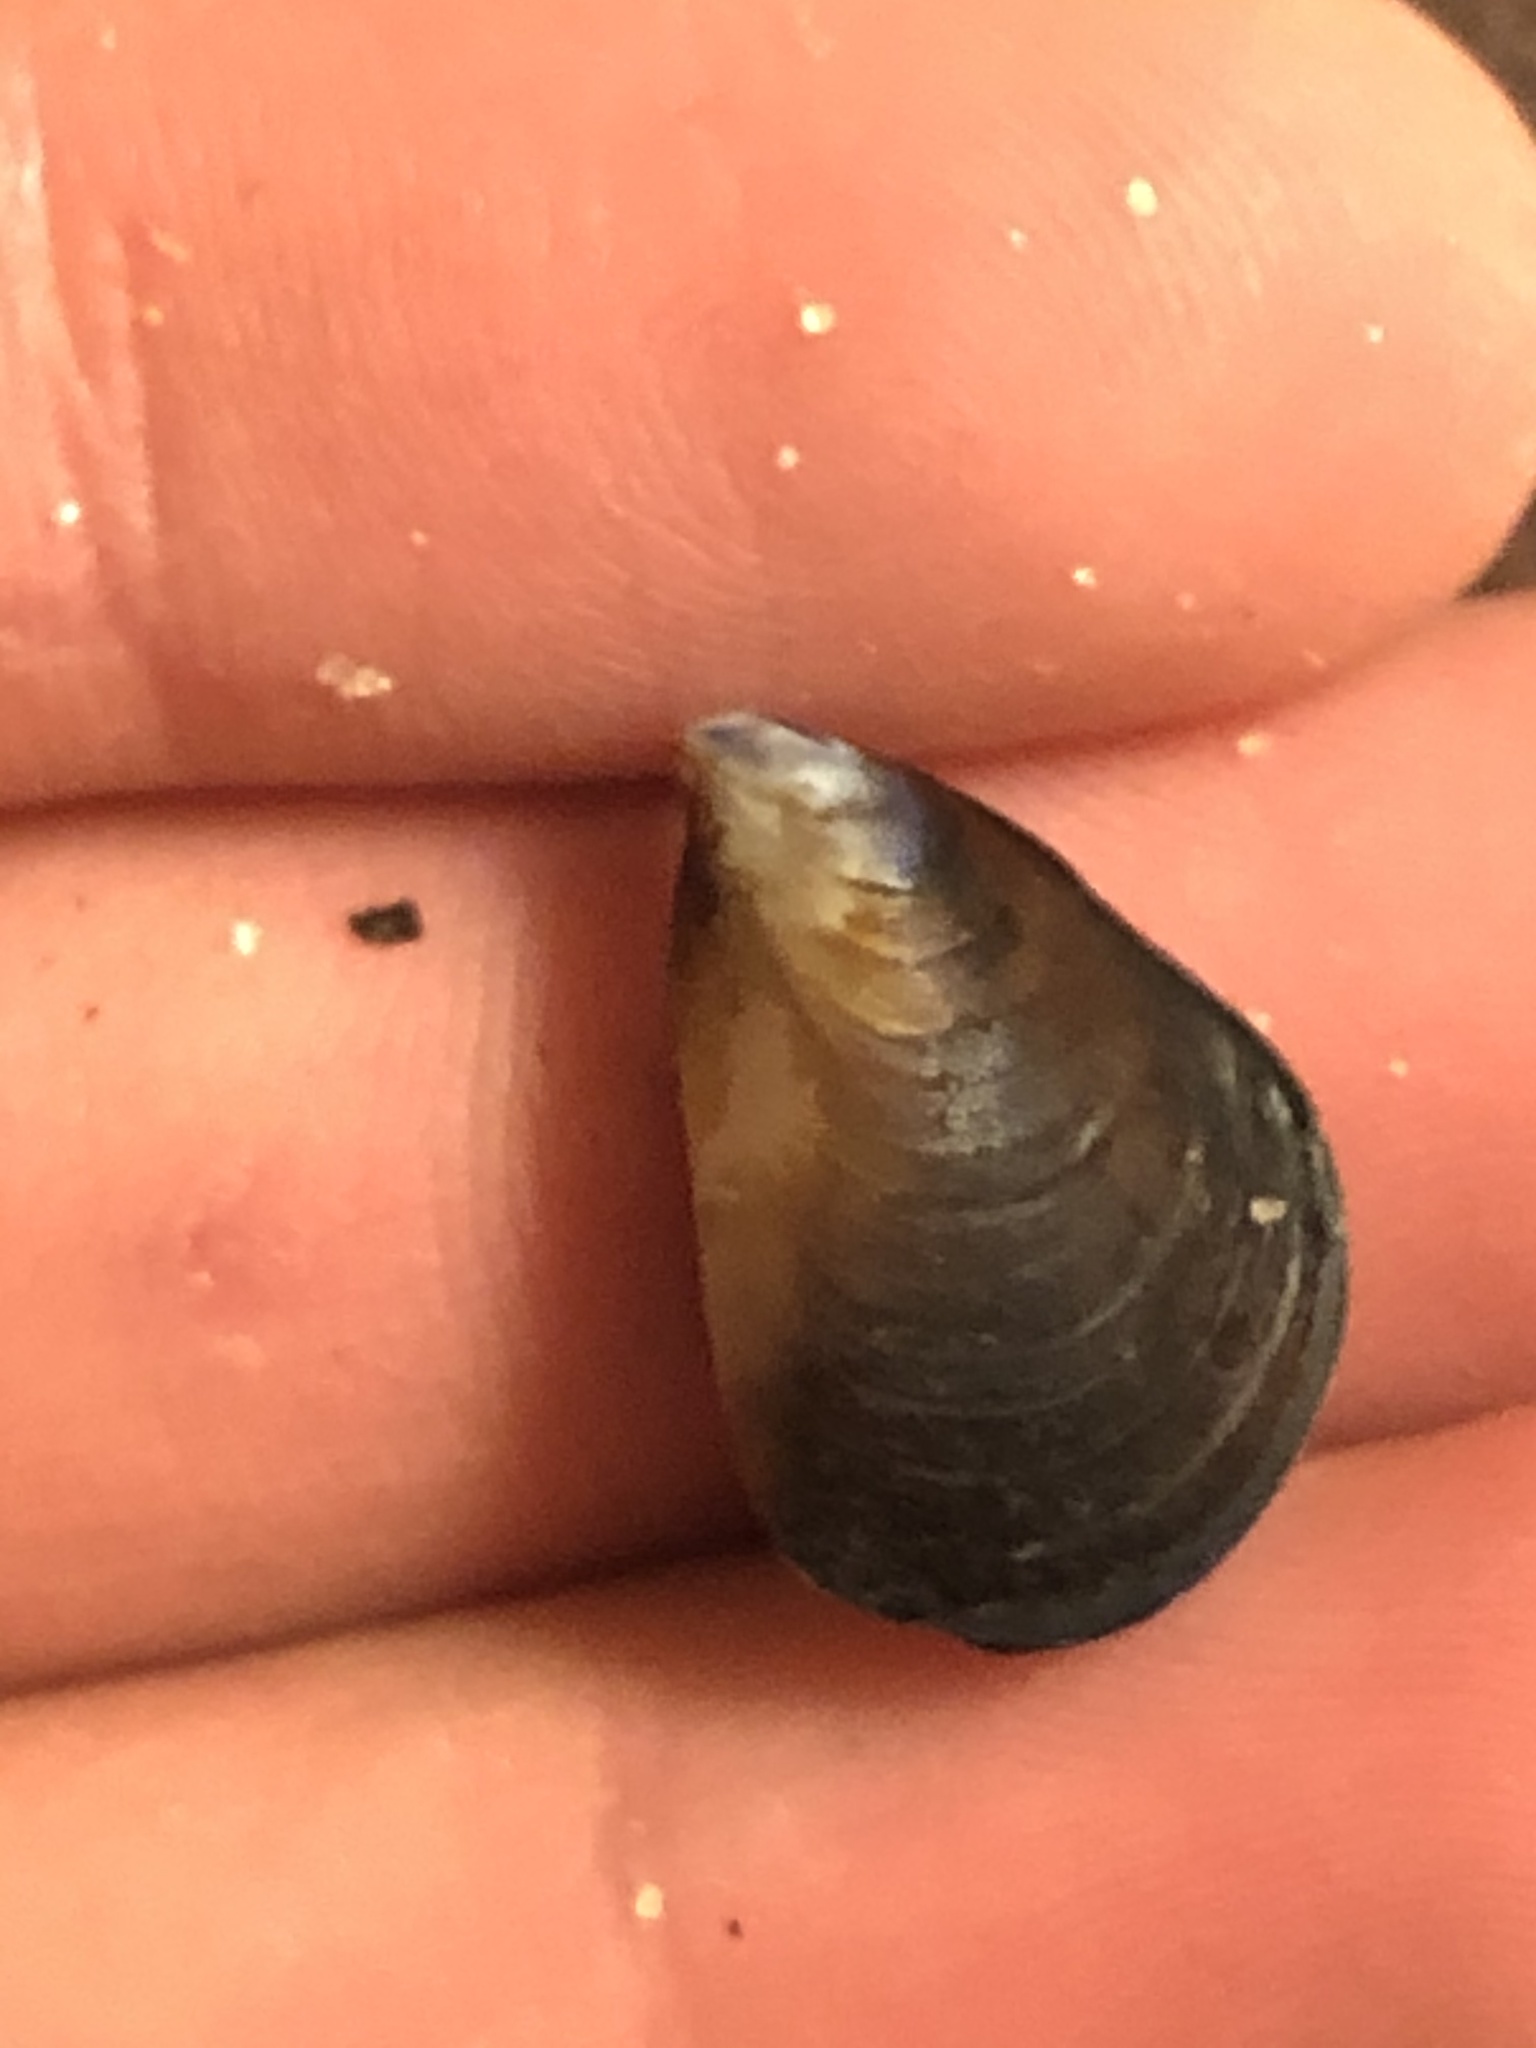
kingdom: Animalia
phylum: Mollusca
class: Bivalvia
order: Mytilida
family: Mytilidae
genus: Mytilus
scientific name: Mytilus galloprovincialis
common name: Mediterranean mussel
